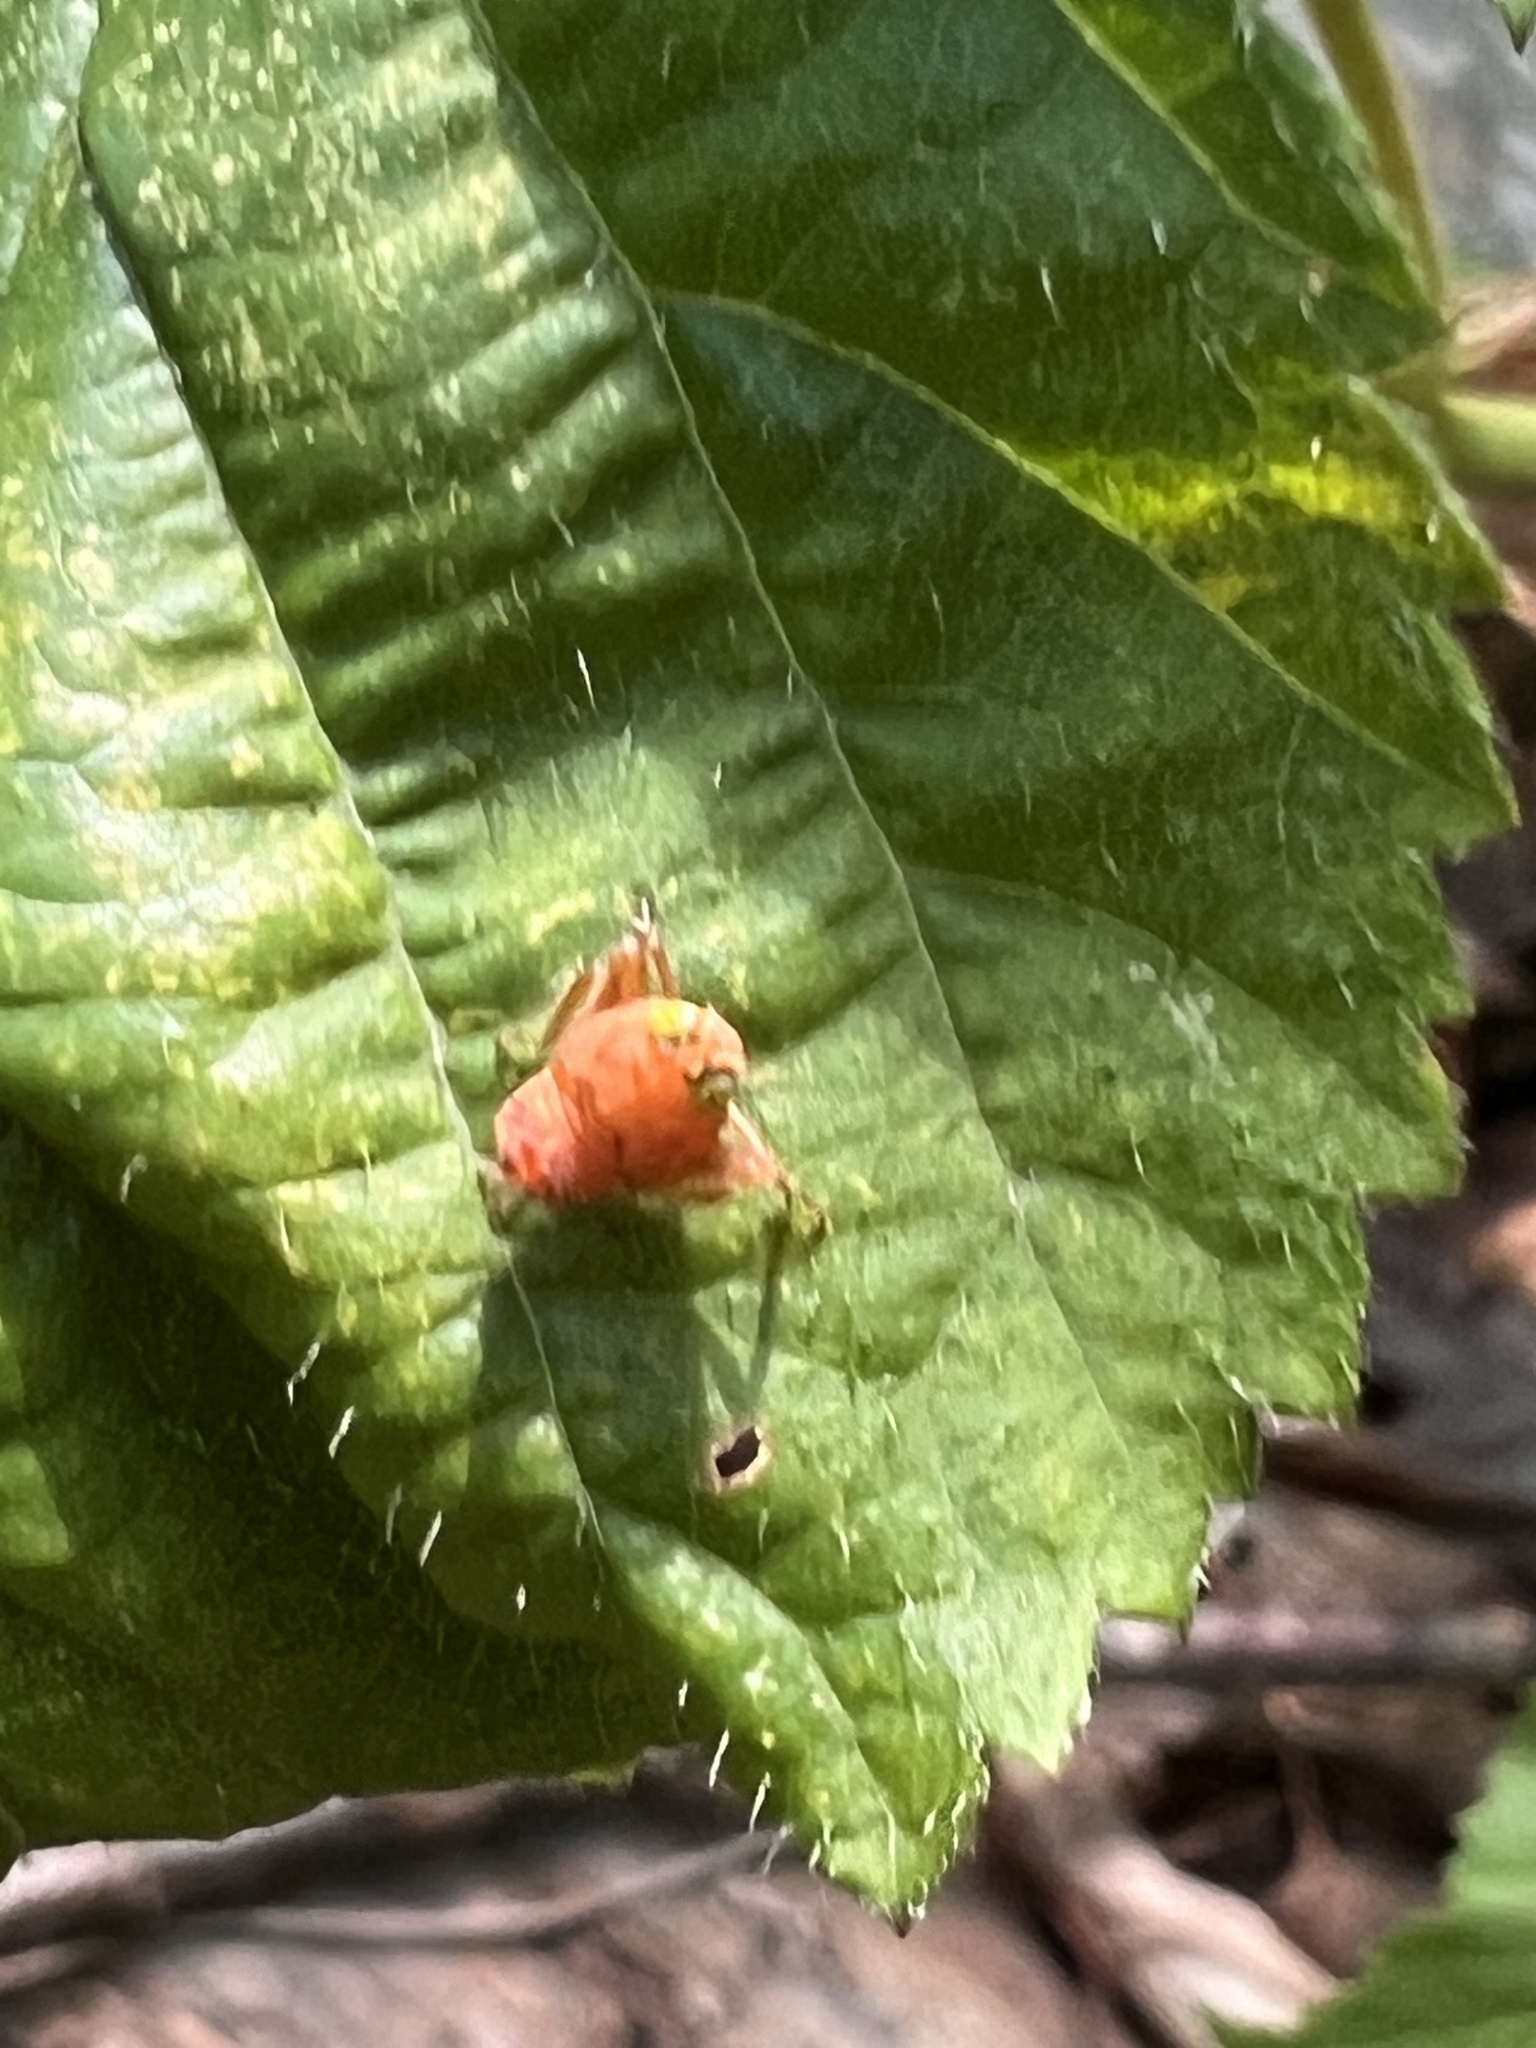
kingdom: Animalia
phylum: Arthropoda
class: Insecta
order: Hemiptera
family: Cicadellidae
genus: Jikradia
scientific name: Jikradia olitoria
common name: Coppery leafhopper
